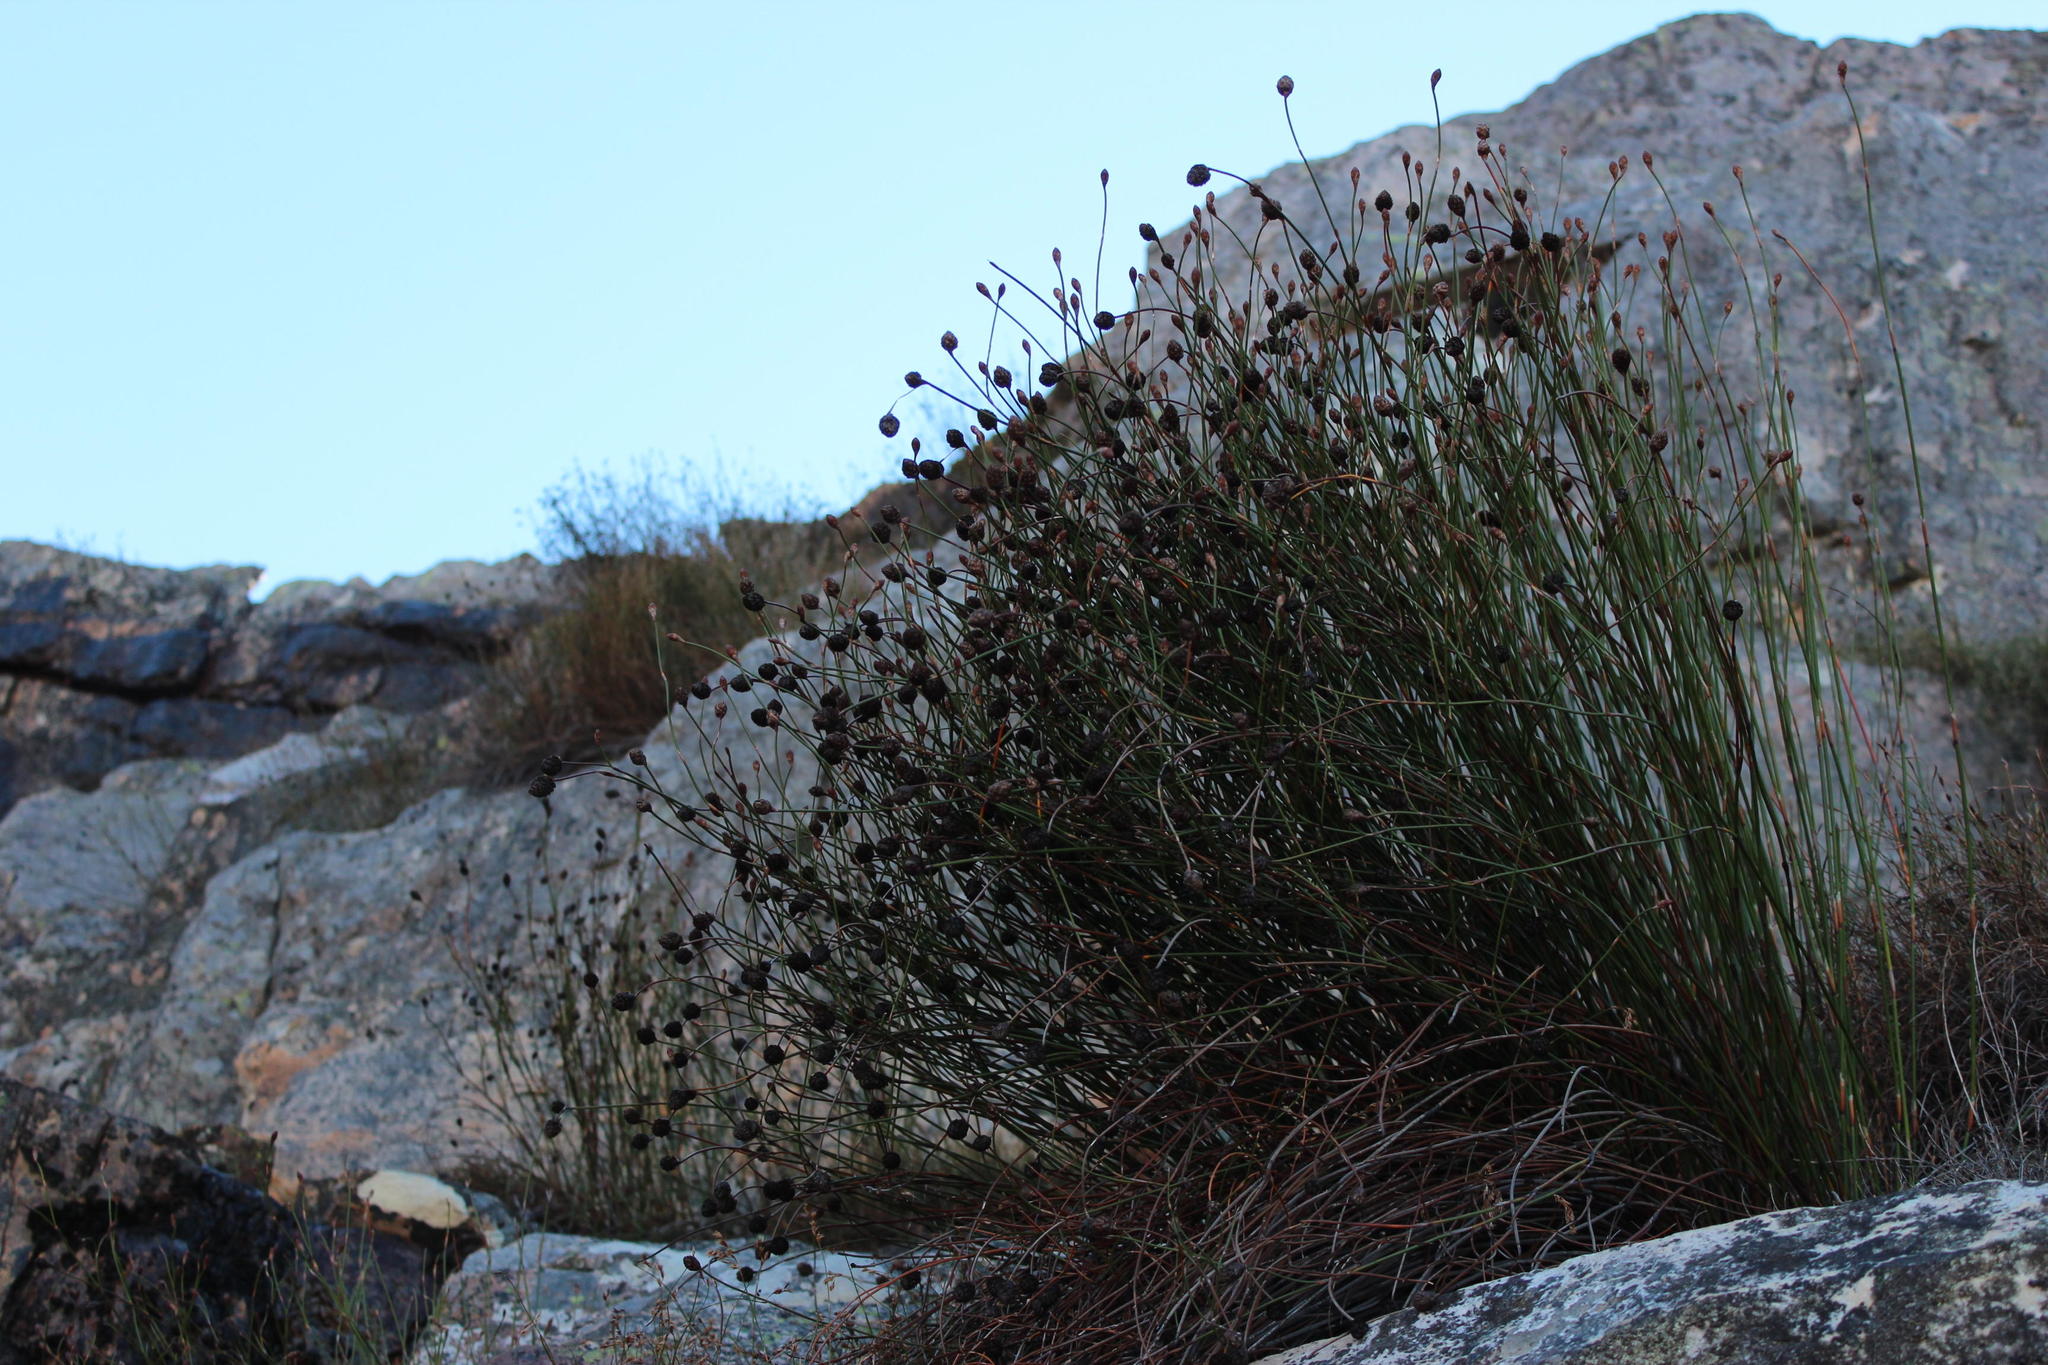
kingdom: Plantae
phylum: Tracheophyta
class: Liliopsida
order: Poales
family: Restionaceae
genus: Restio
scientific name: Restio strobilifer
